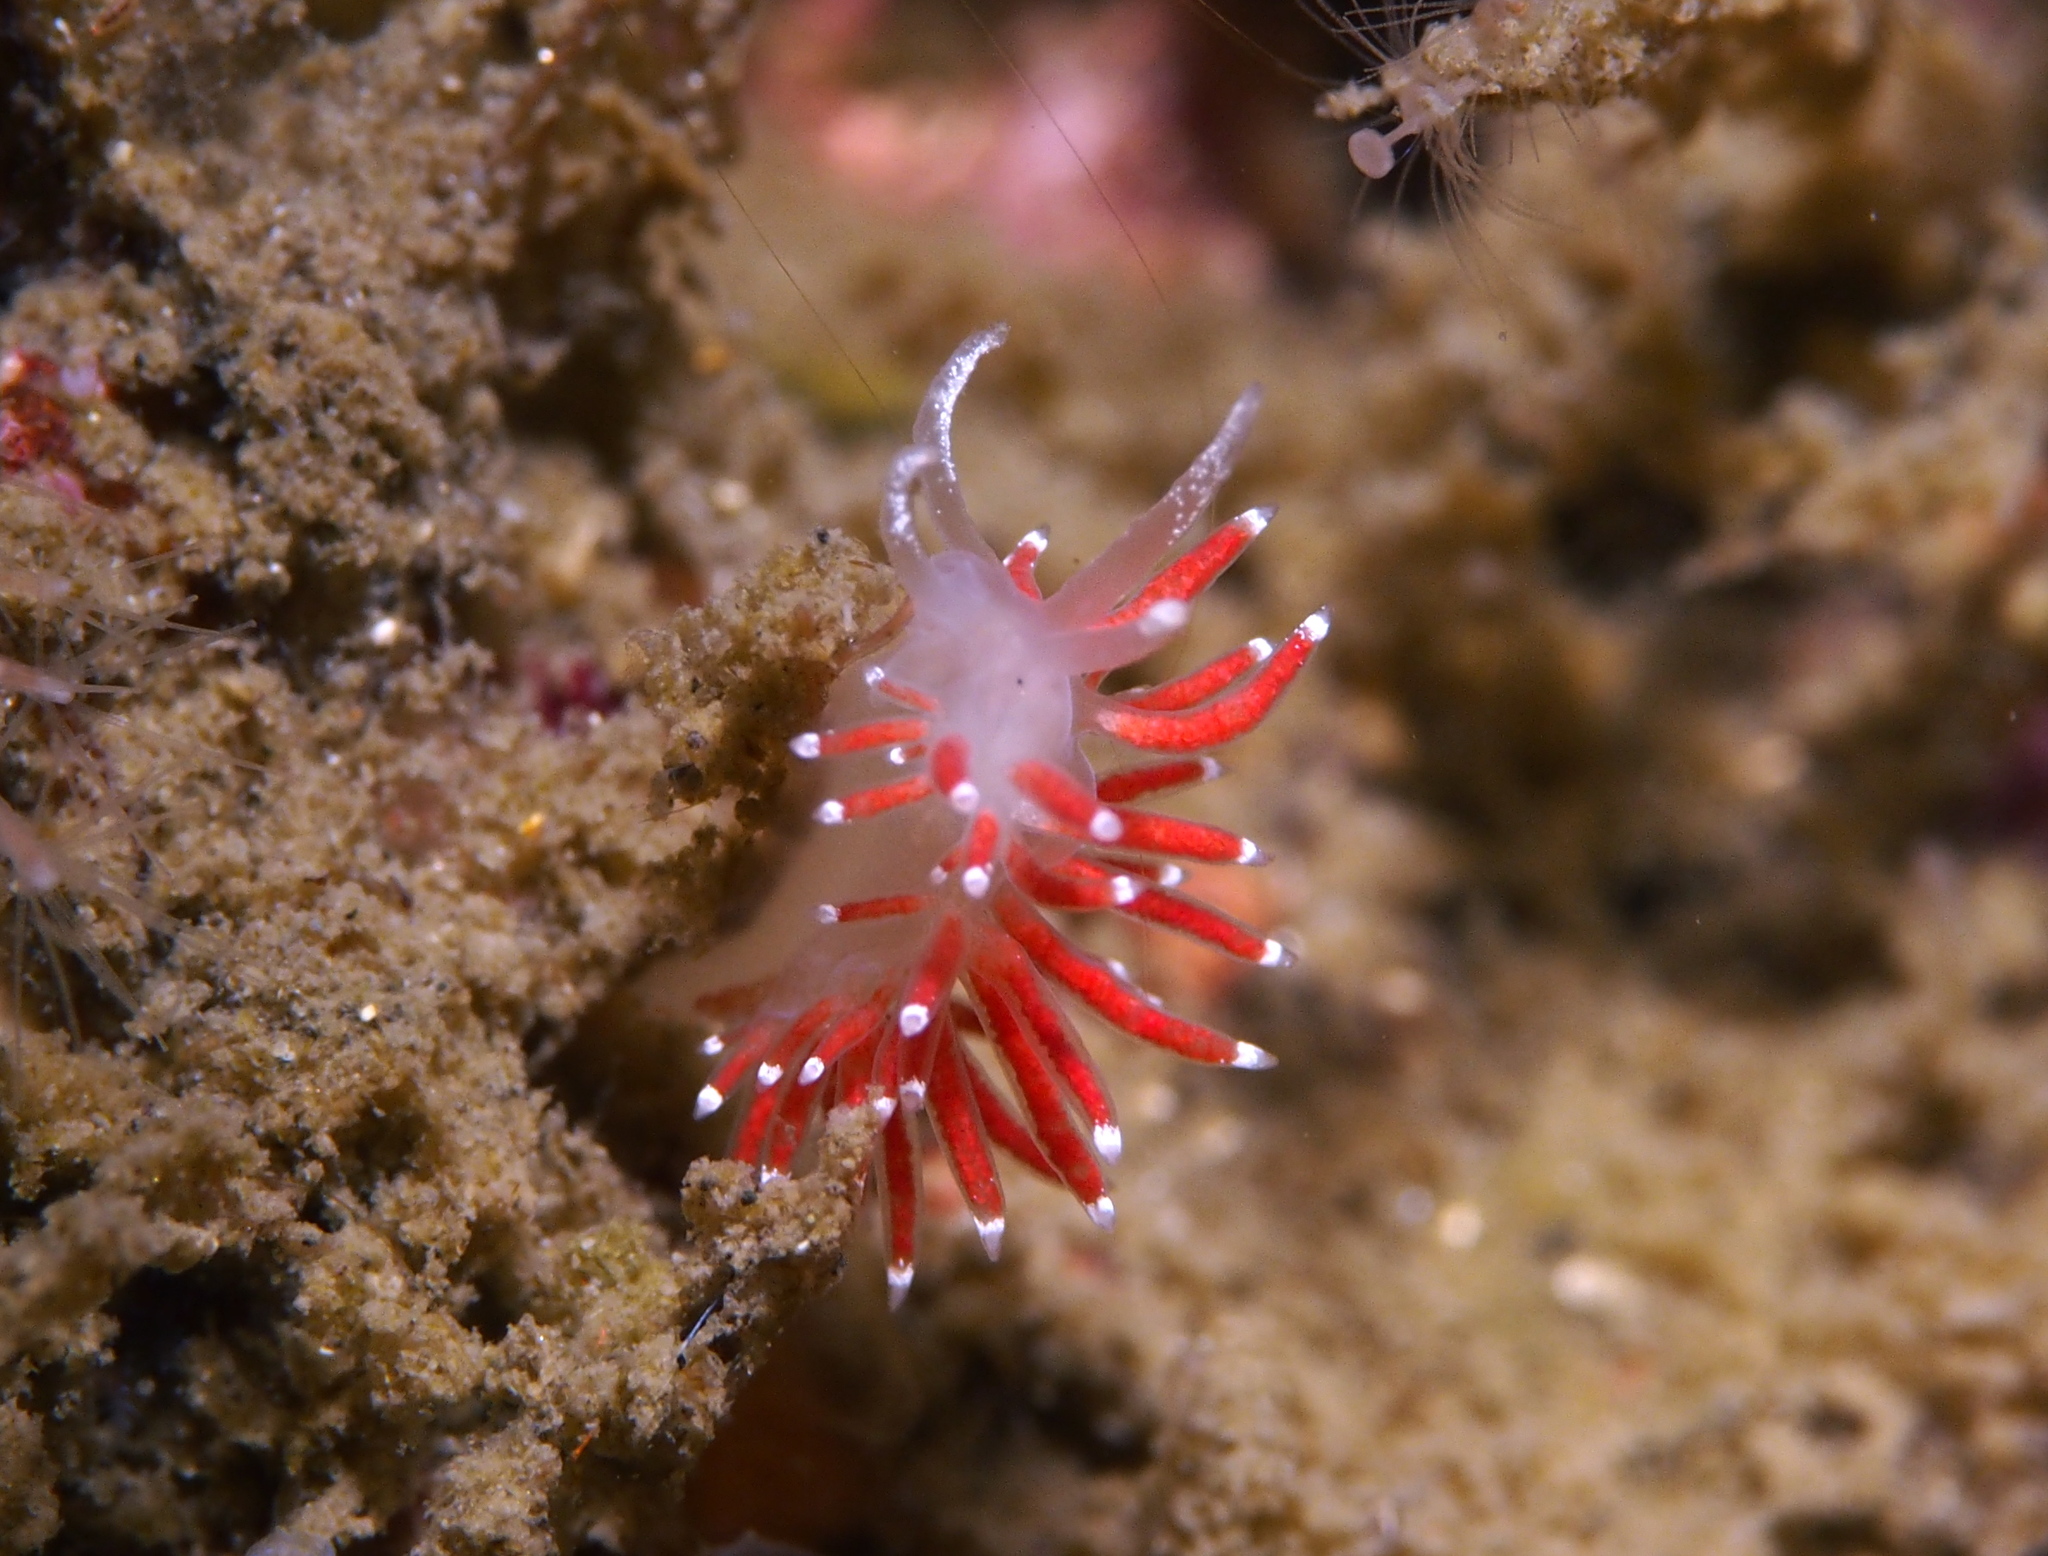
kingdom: Animalia
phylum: Mollusca
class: Gastropoda
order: Nudibranchia
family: Coryphellidae
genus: Coryphella
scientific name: Coryphella gracilis
